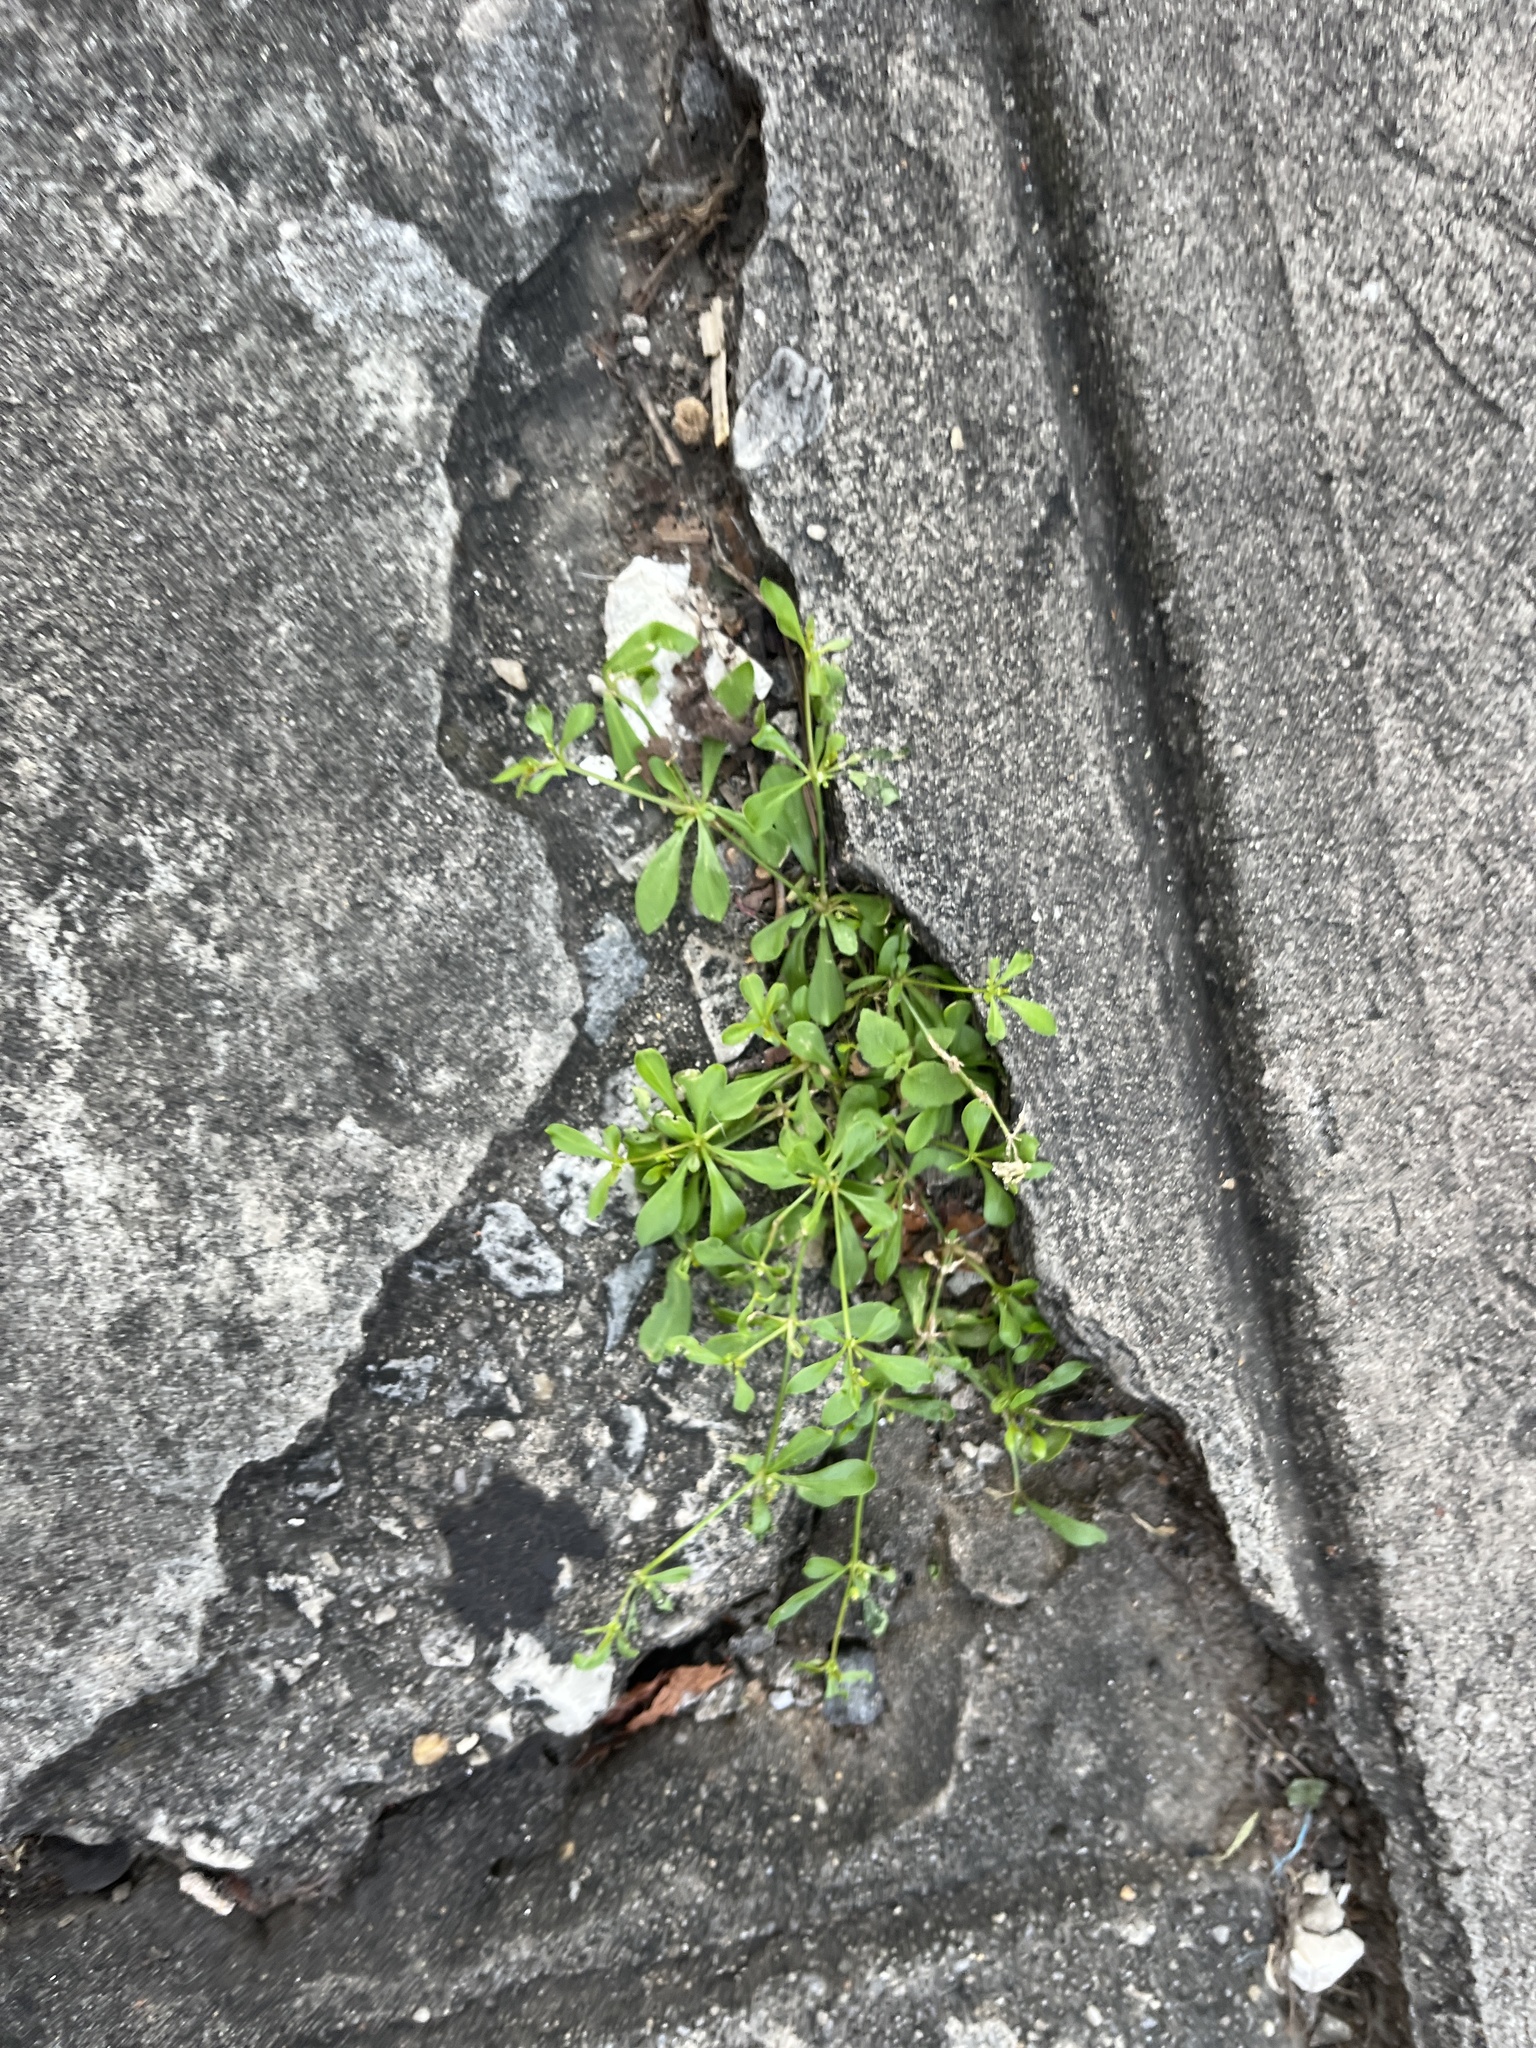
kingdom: Plantae
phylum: Tracheophyta
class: Magnoliopsida
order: Caryophyllales
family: Molluginaceae
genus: Mollugo
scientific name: Mollugo verticillata
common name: Green carpetweed
